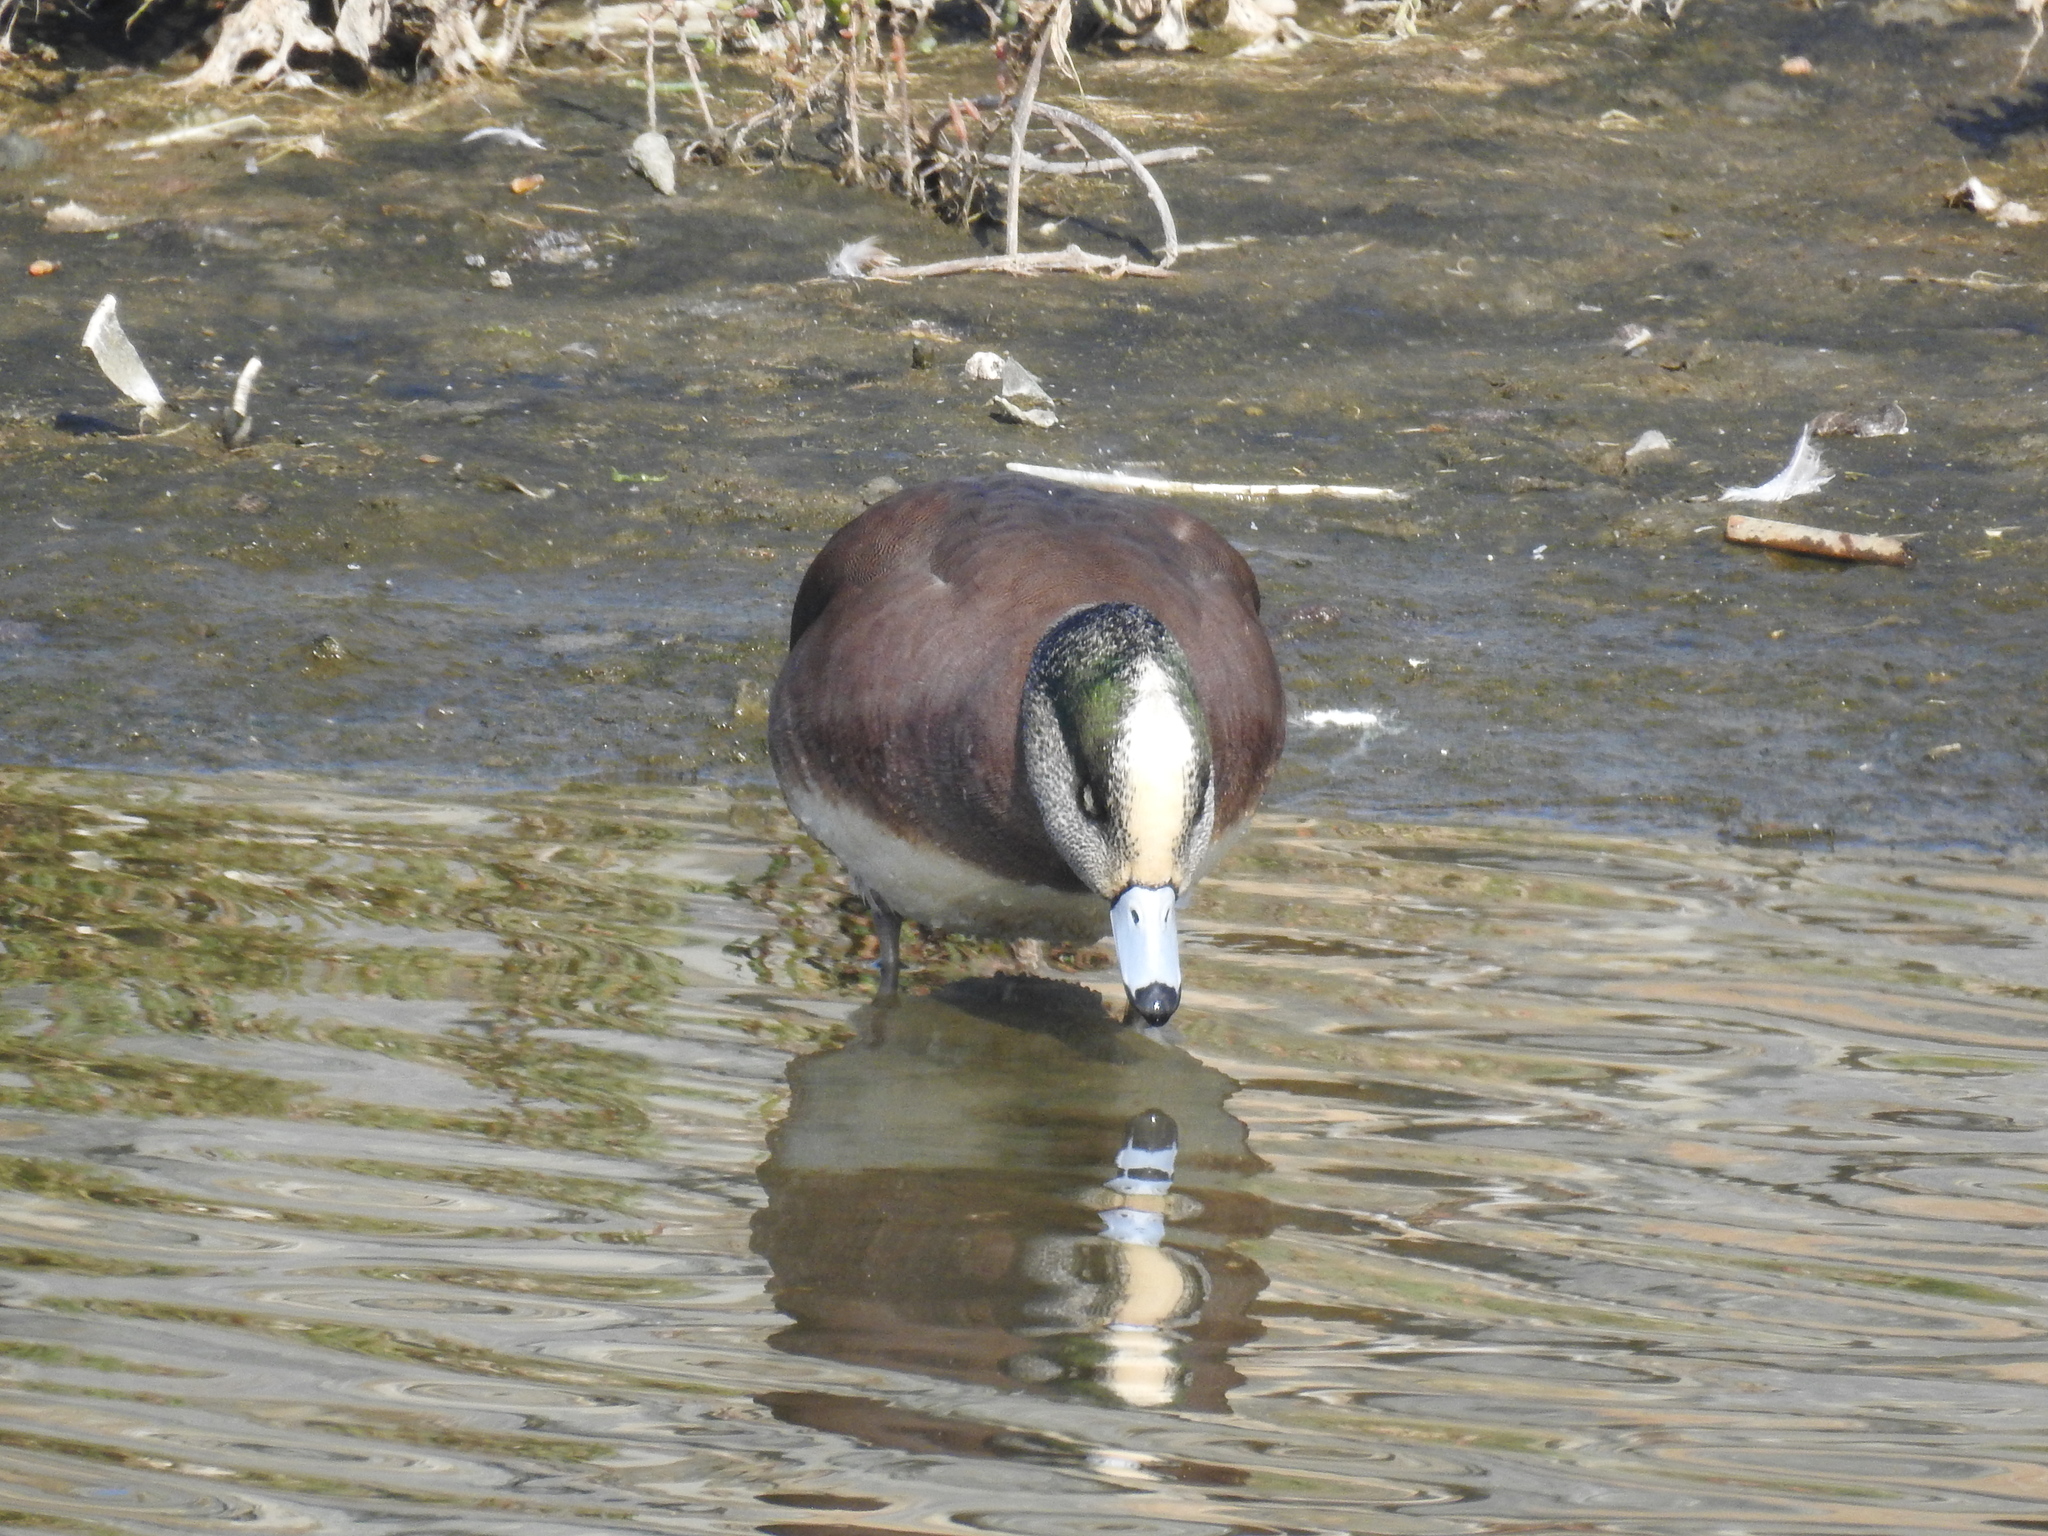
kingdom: Animalia
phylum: Chordata
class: Aves
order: Anseriformes
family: Anatidae
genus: Mareca
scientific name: Mareca americana
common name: American wigeon
